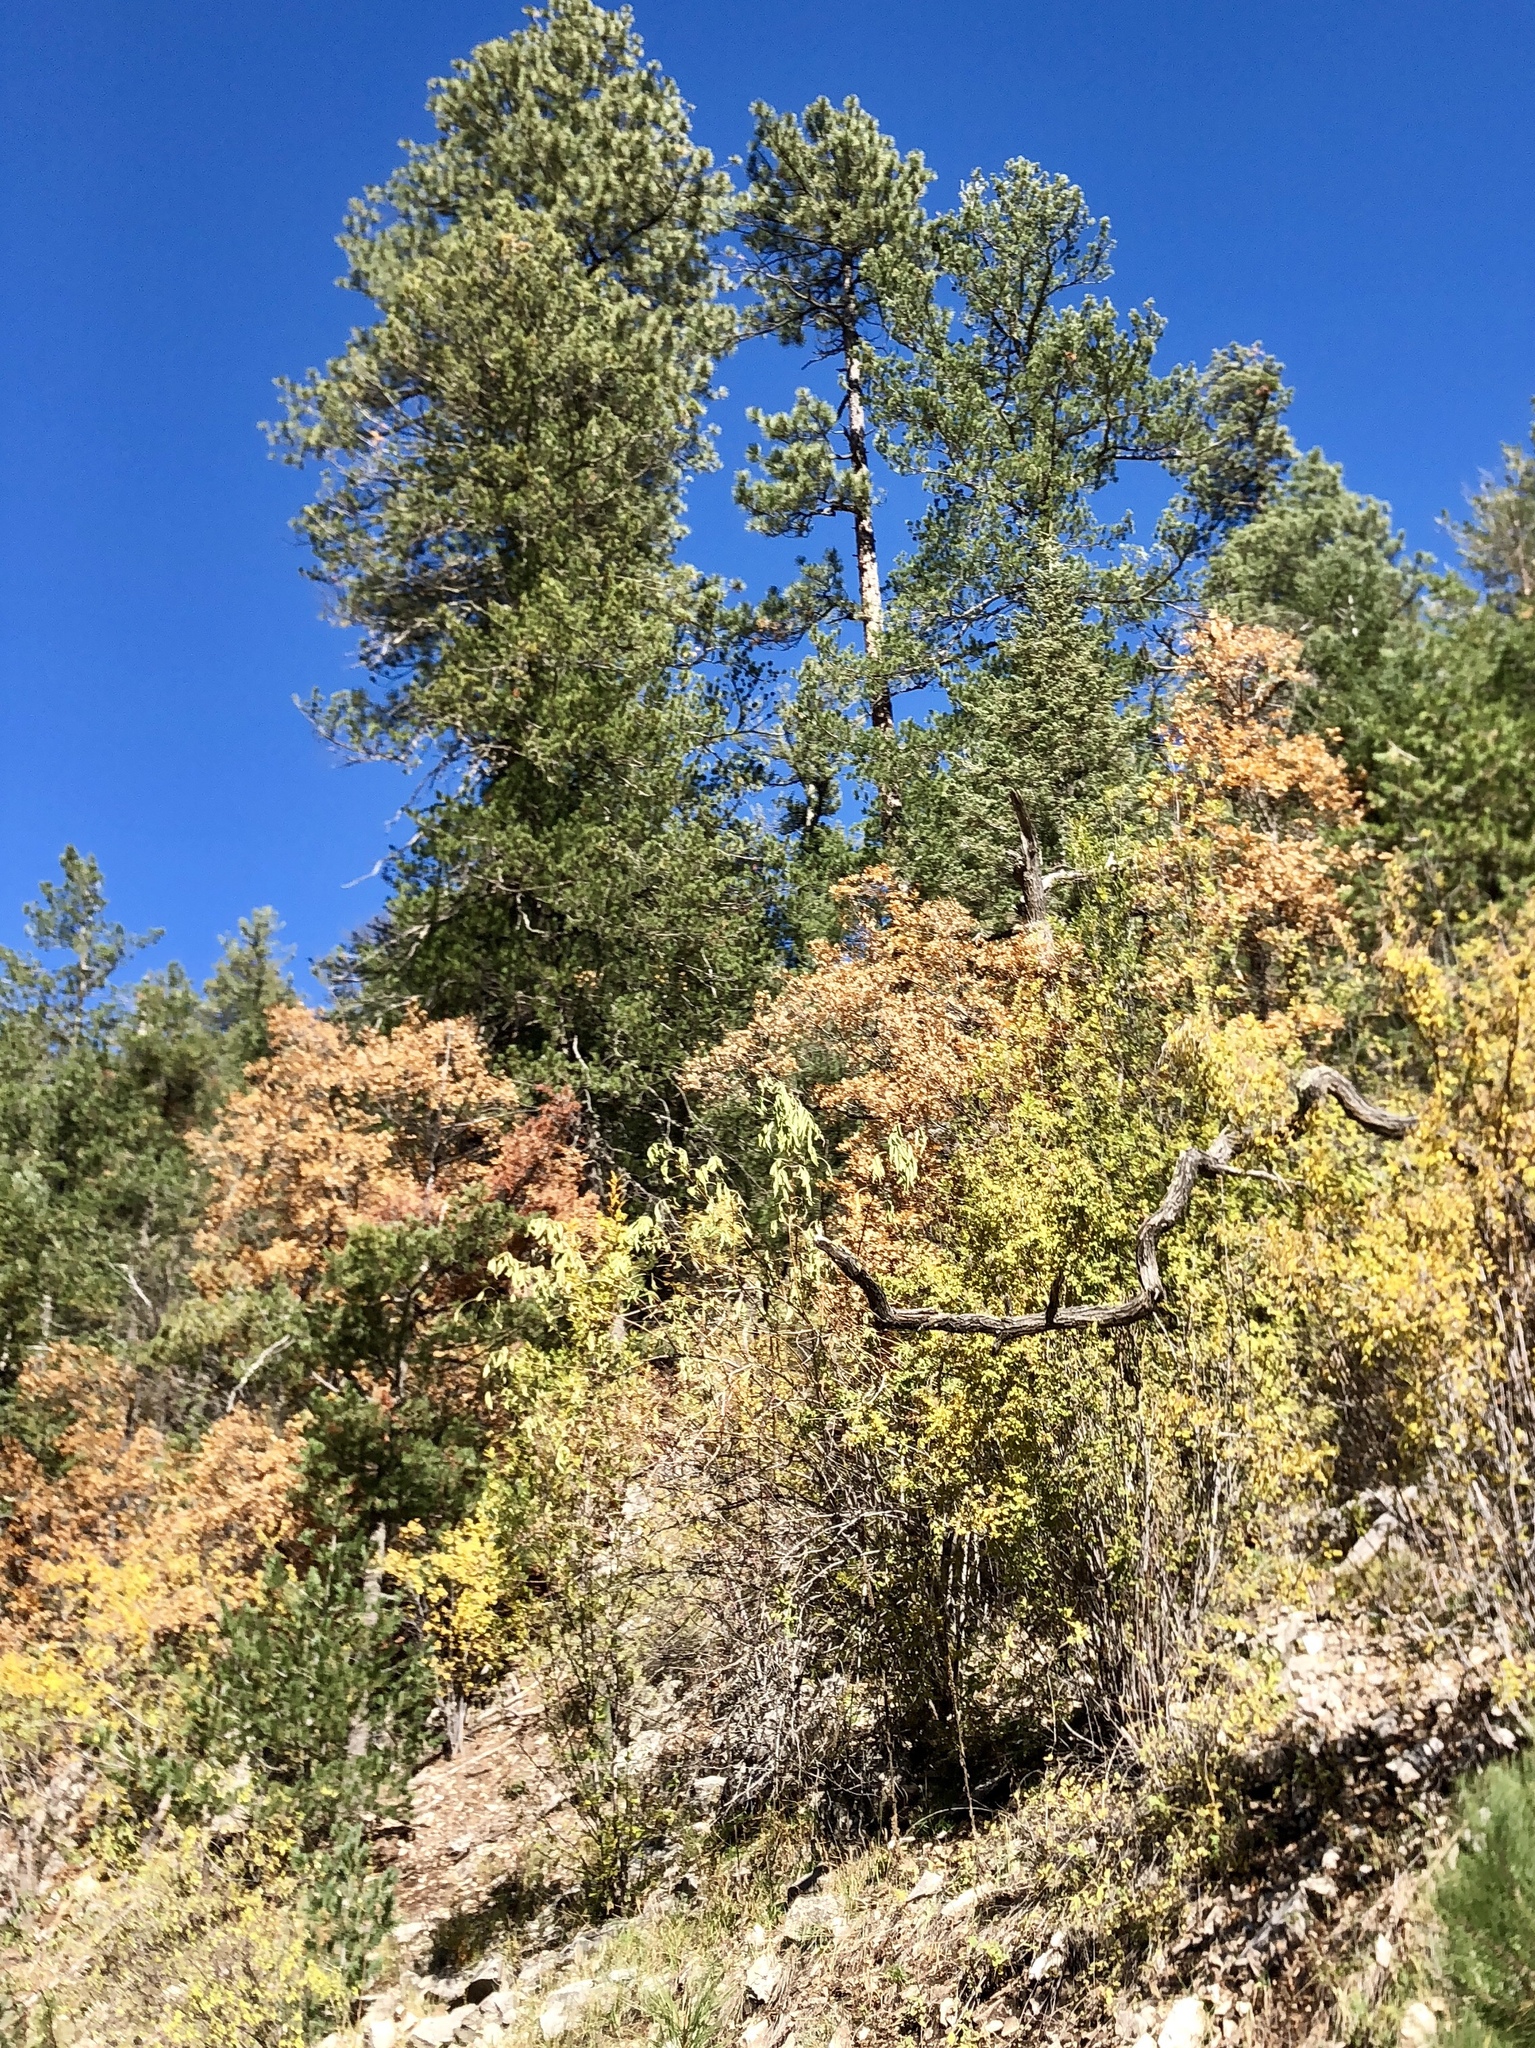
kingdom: Plantae
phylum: Tracheophyta
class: Magnoliopsida
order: Fagales
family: Fagaceae
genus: Quercus
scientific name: Quercus gambelii
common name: Gambel oak
